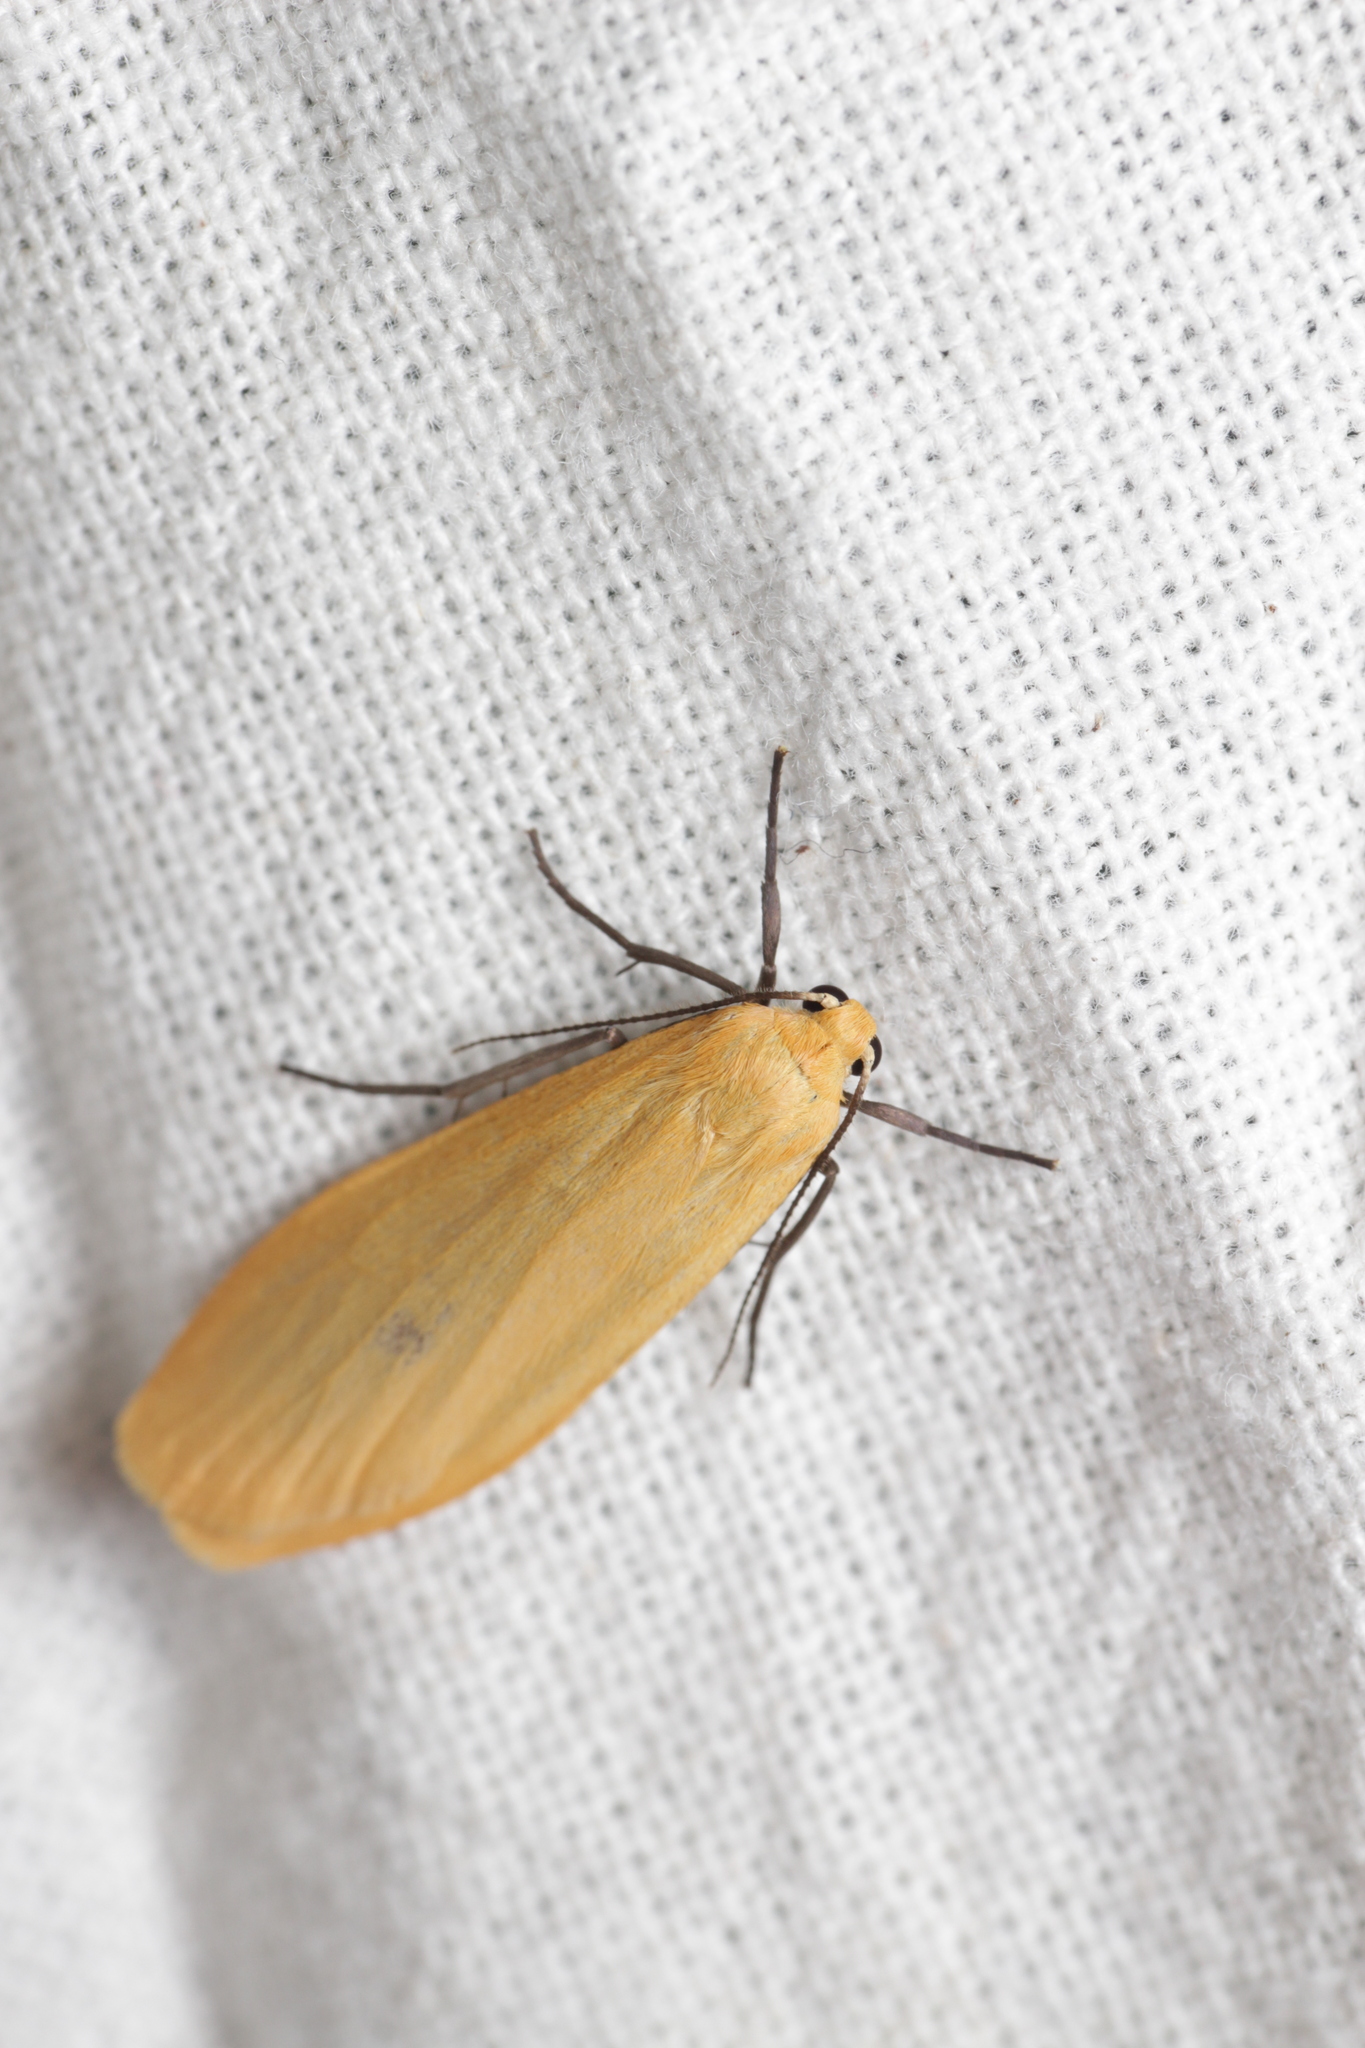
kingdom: Animalia
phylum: Arthropoda
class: Insecta
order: Lepidoptera
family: Erebidae
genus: Wittia
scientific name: Wittia sororcula
